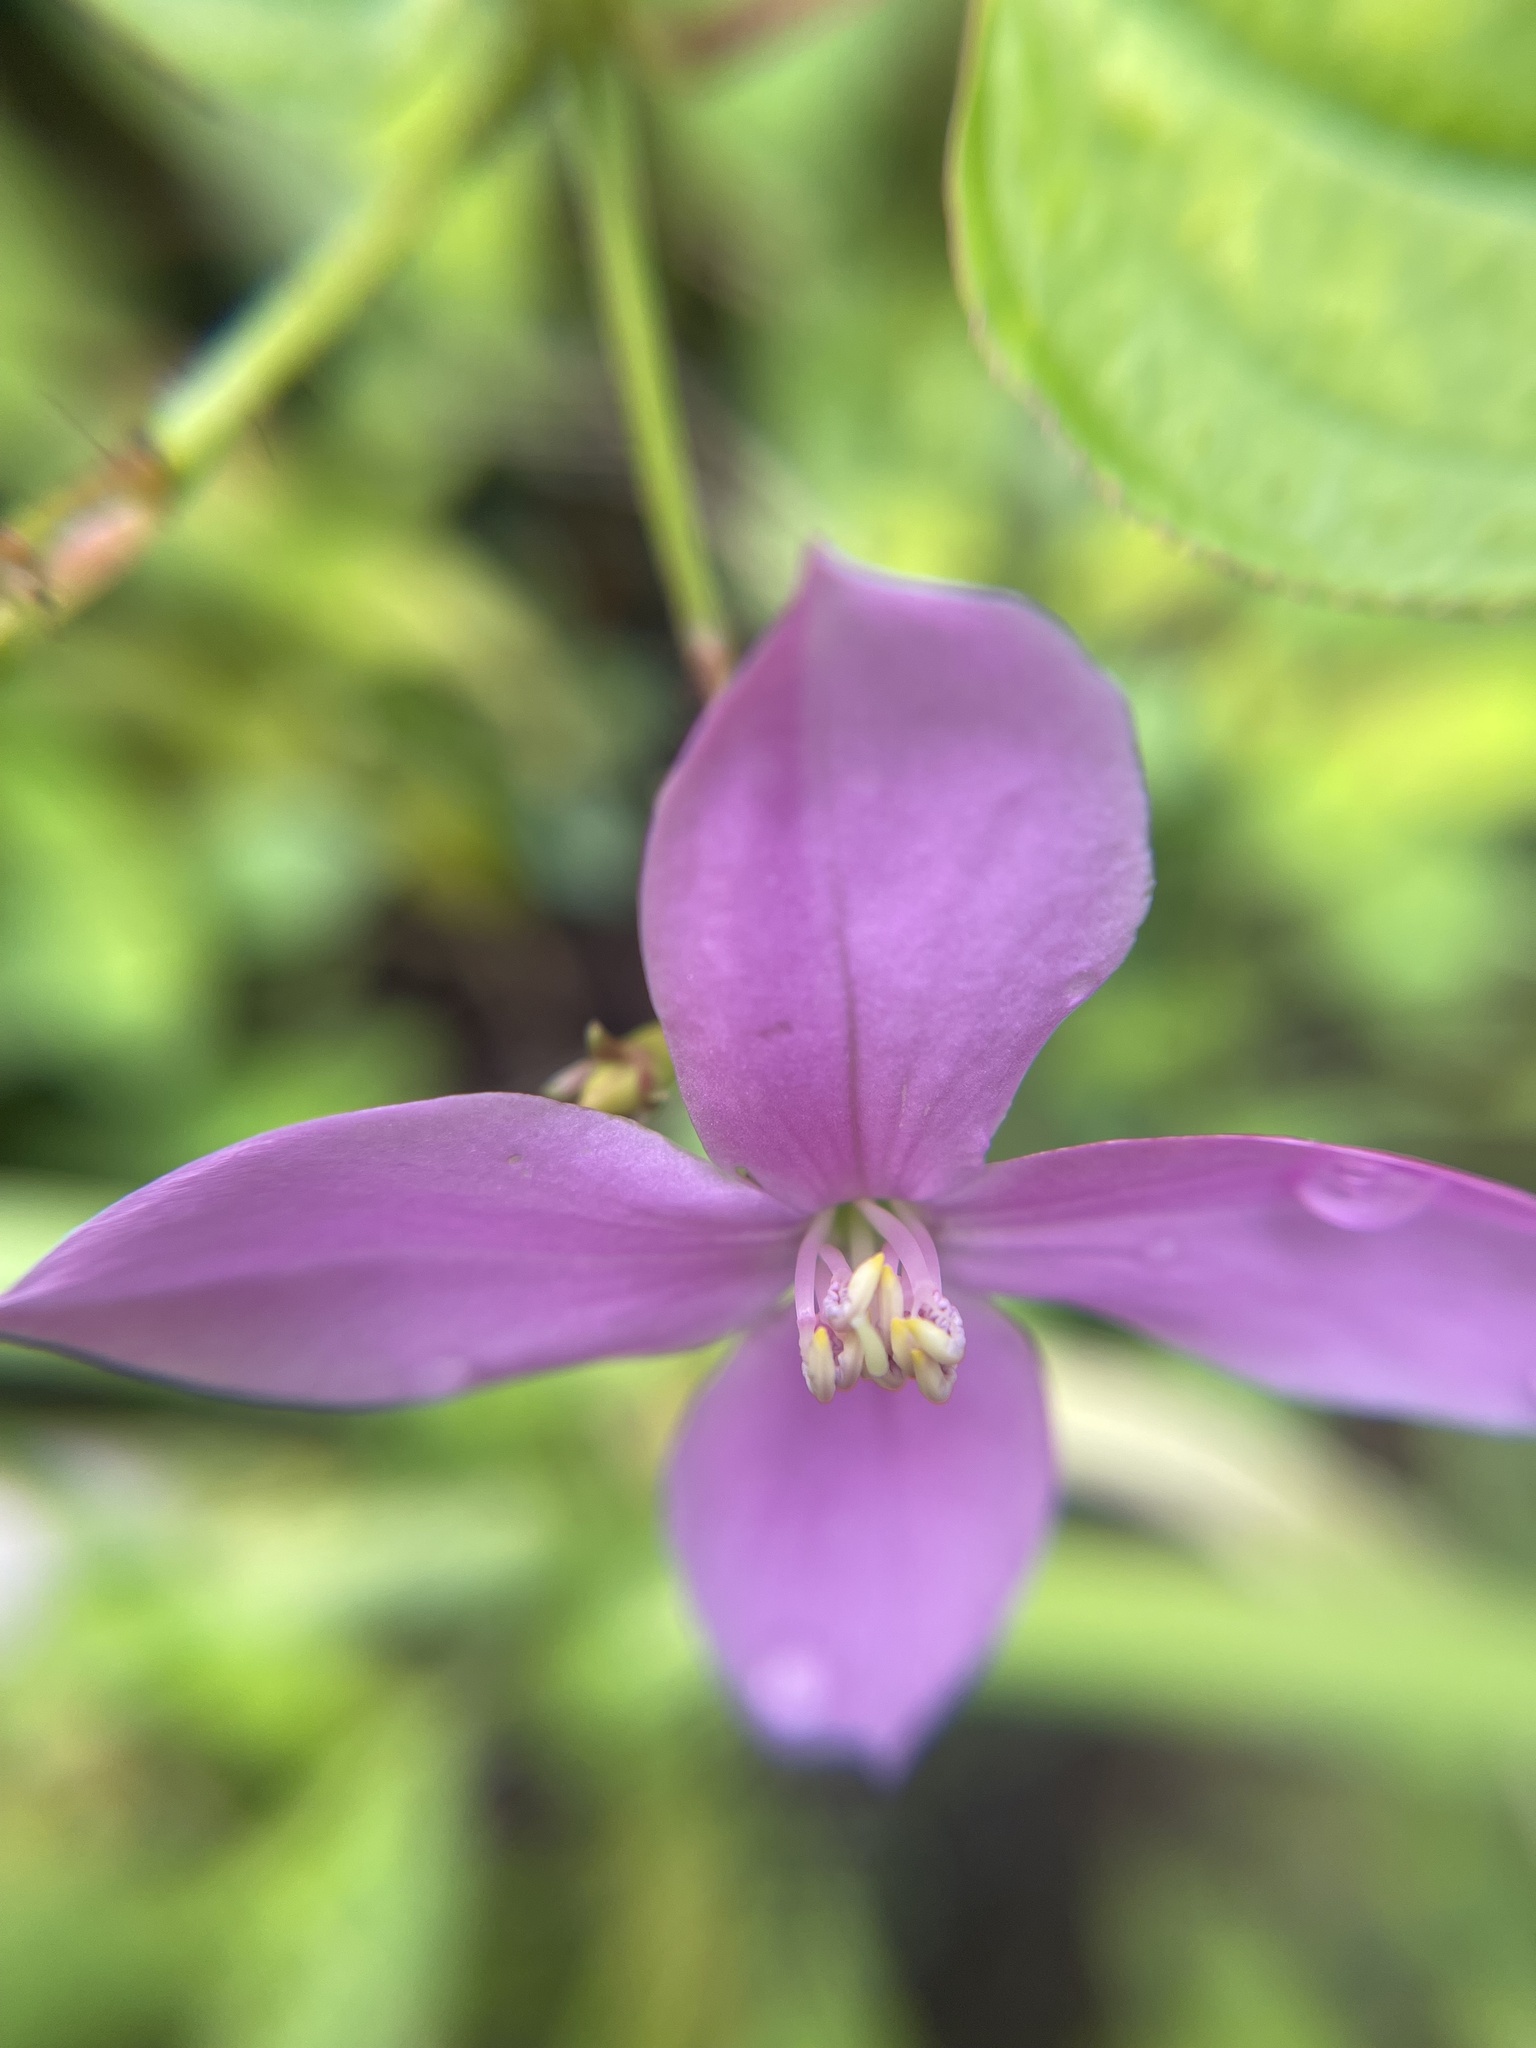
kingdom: Plantae
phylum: Tracheophyta
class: Magnoliopsida
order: Myrtales
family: Melastomataceae
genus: Arthrostemma
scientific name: Arthrostemma ciliatum
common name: Everblooming eavender
